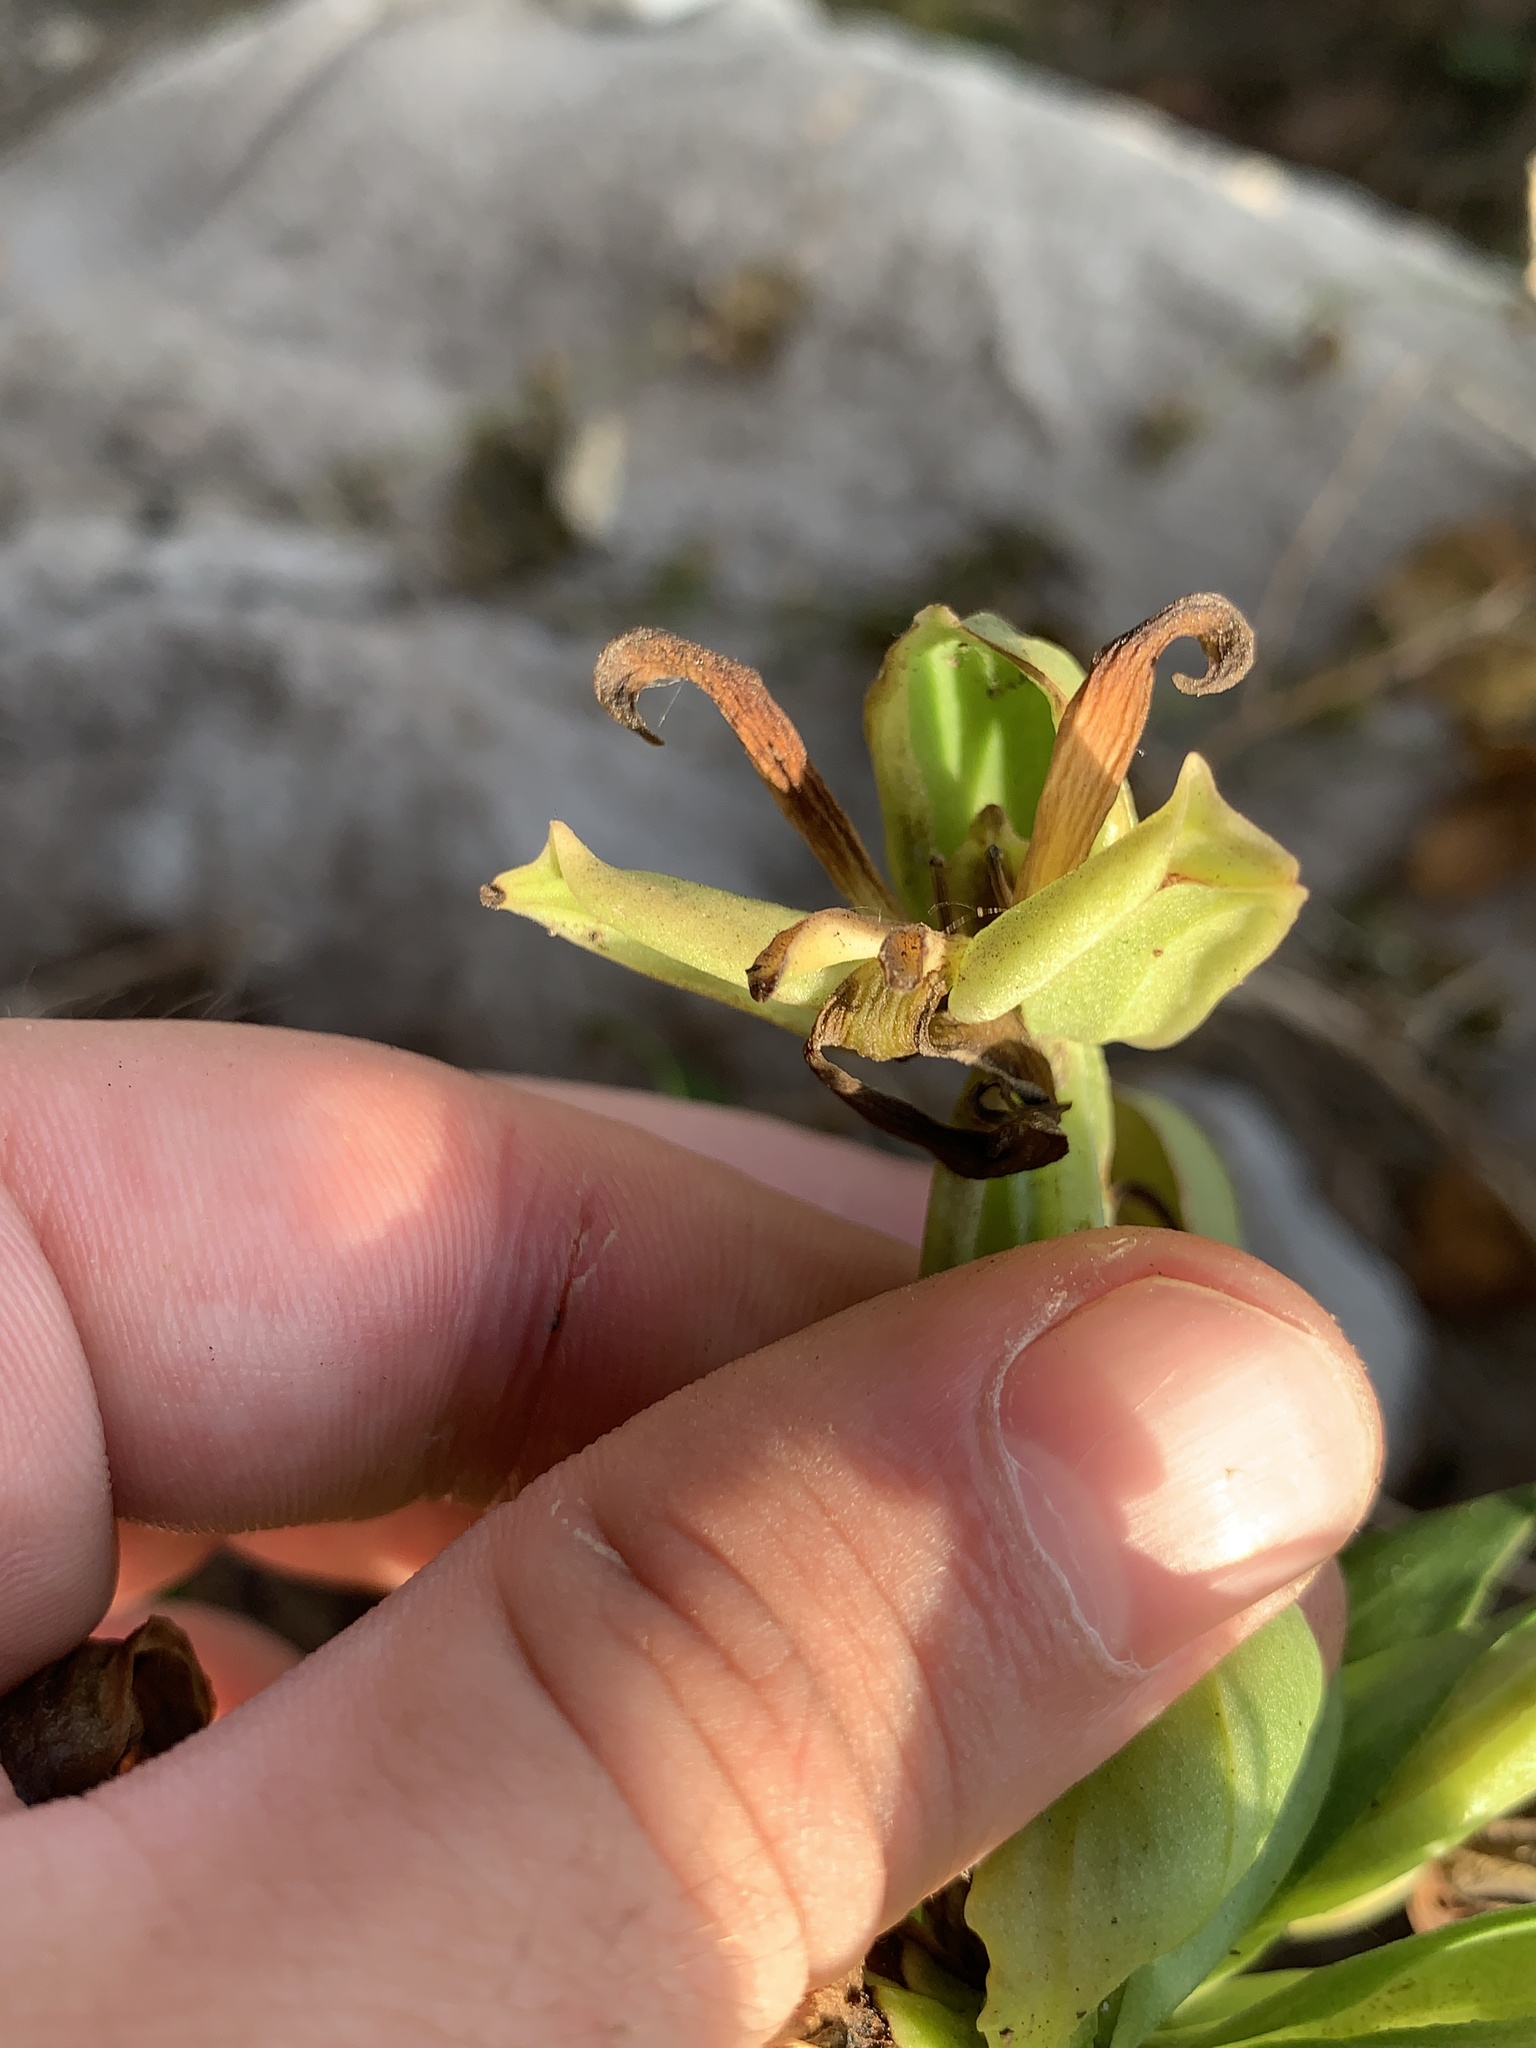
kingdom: Plantae
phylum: Tracheophyta
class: Liliopsida
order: Asparagales
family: Orchidaceae
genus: Bonatea
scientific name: Bonatea speciosa
